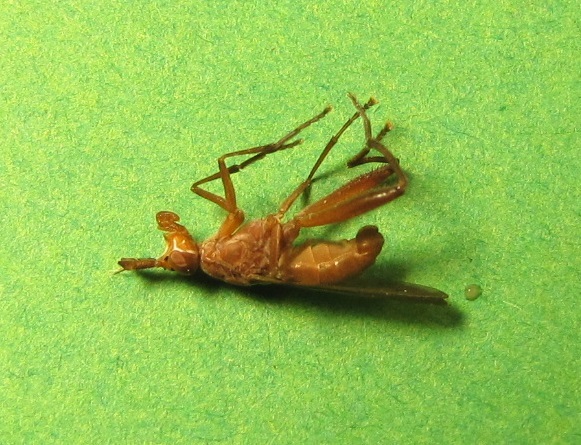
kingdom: Animalia
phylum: Arthropoda
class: Insecta
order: Diptera
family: Sciomyzidae
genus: Sepedon
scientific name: Sepedon fuscipennisfuscipennis
